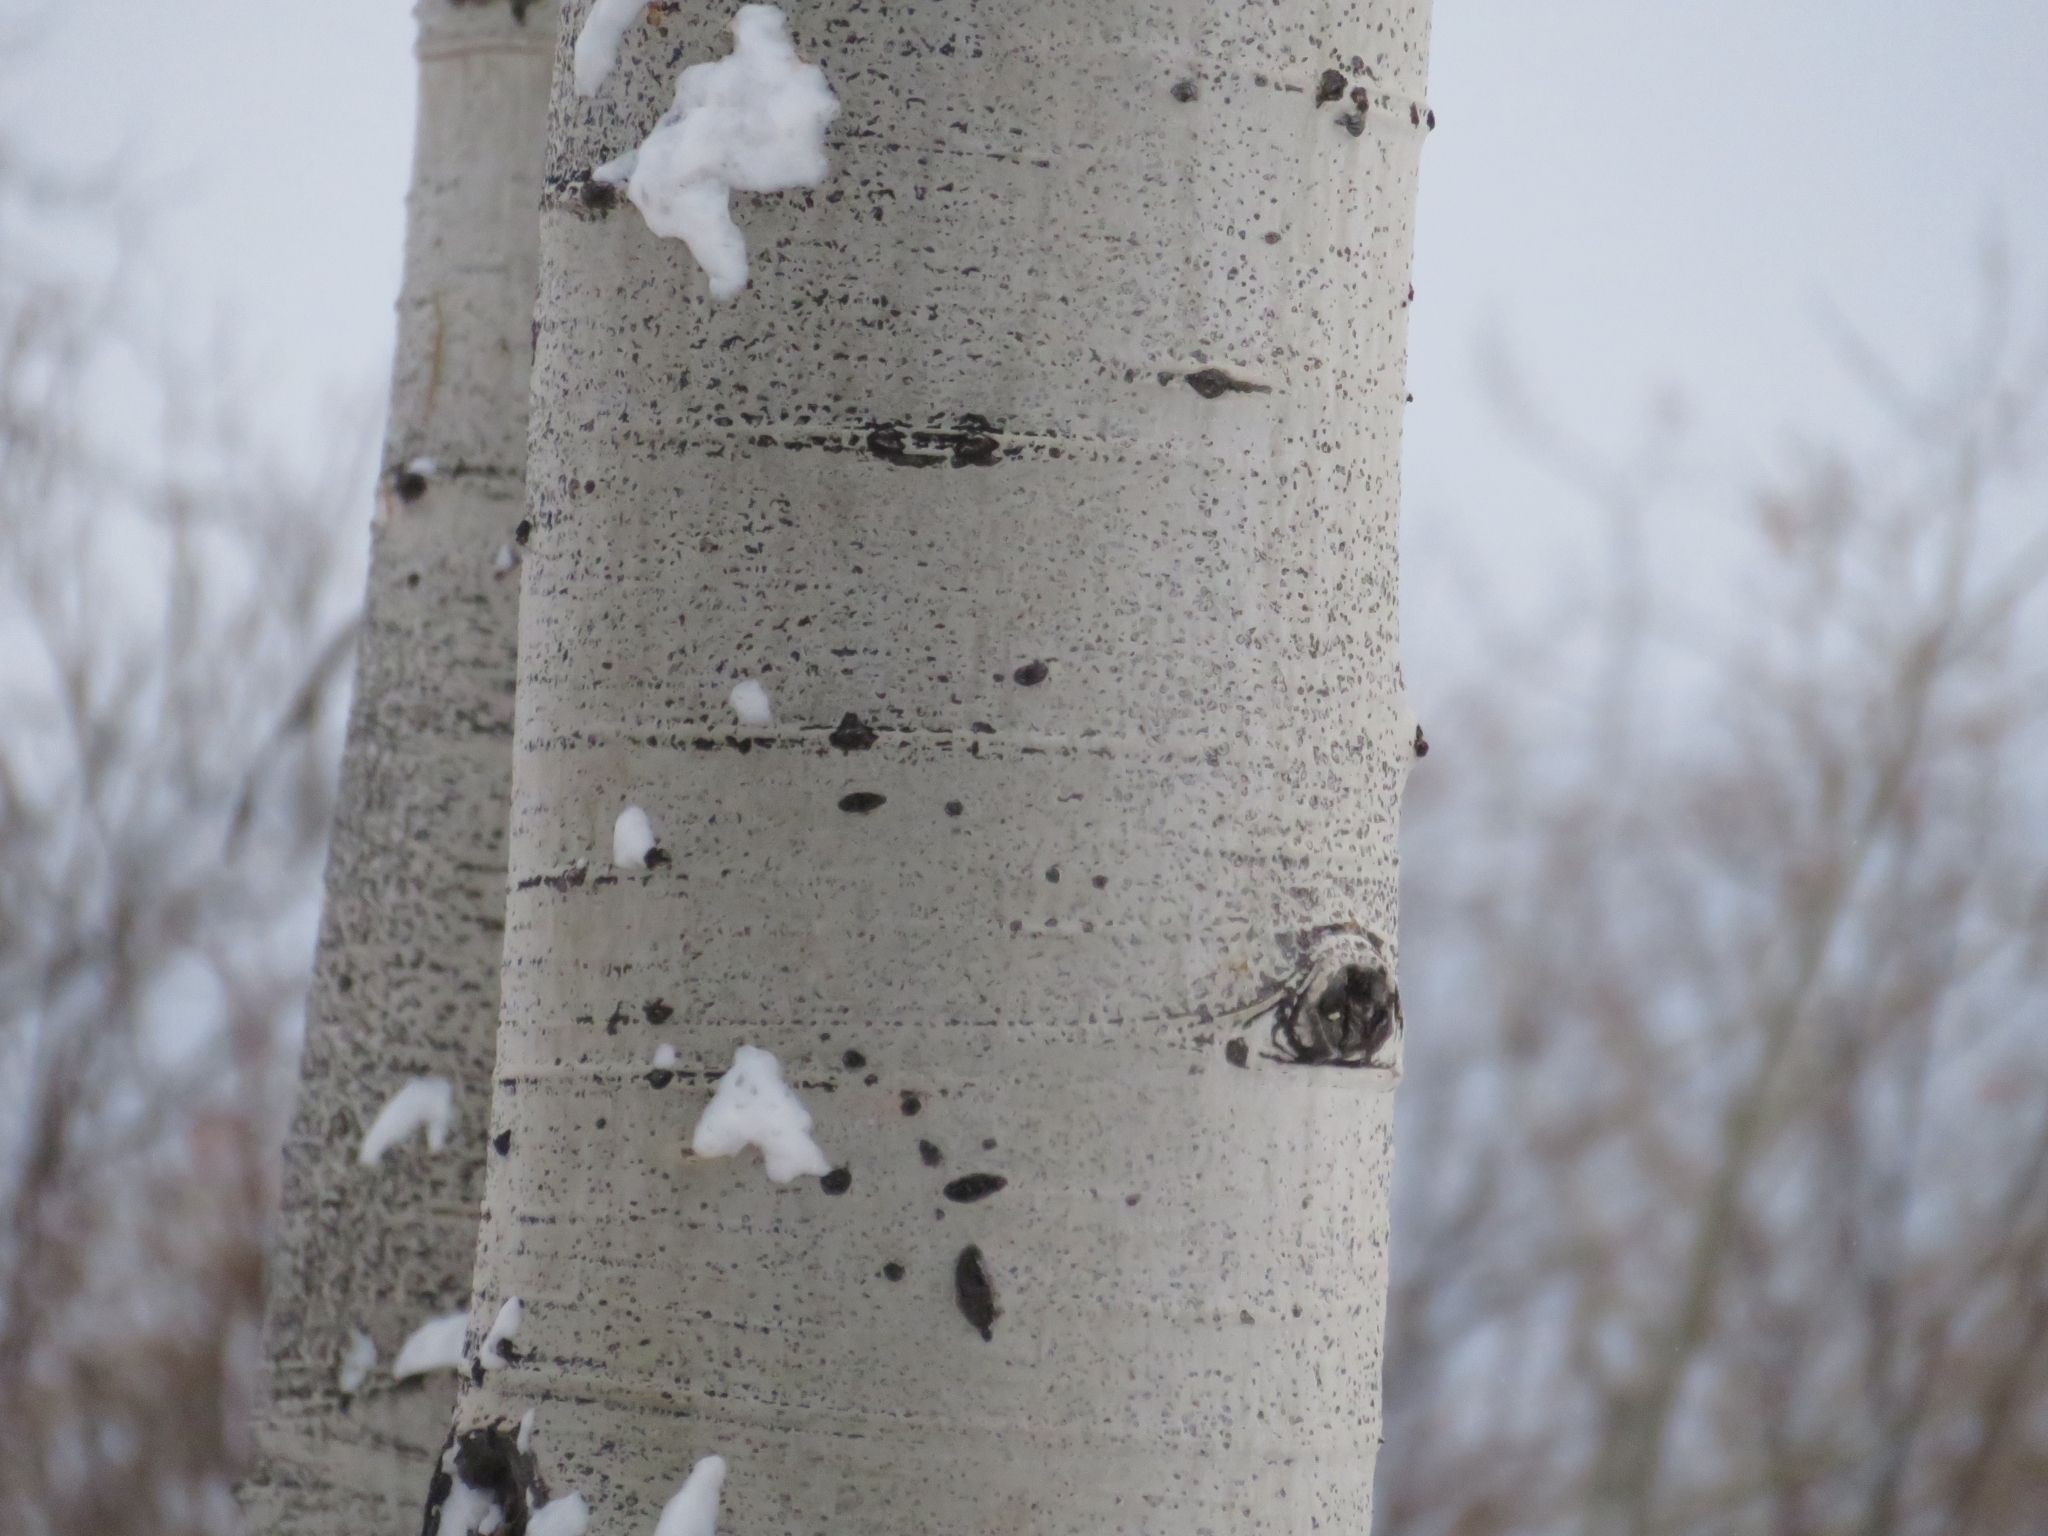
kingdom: Plantae
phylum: Tracheophyta
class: Magnoliopsida
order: Malpighiales
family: Salicaceae
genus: Populus
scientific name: Populus tremuloides
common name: Quaking aspen
